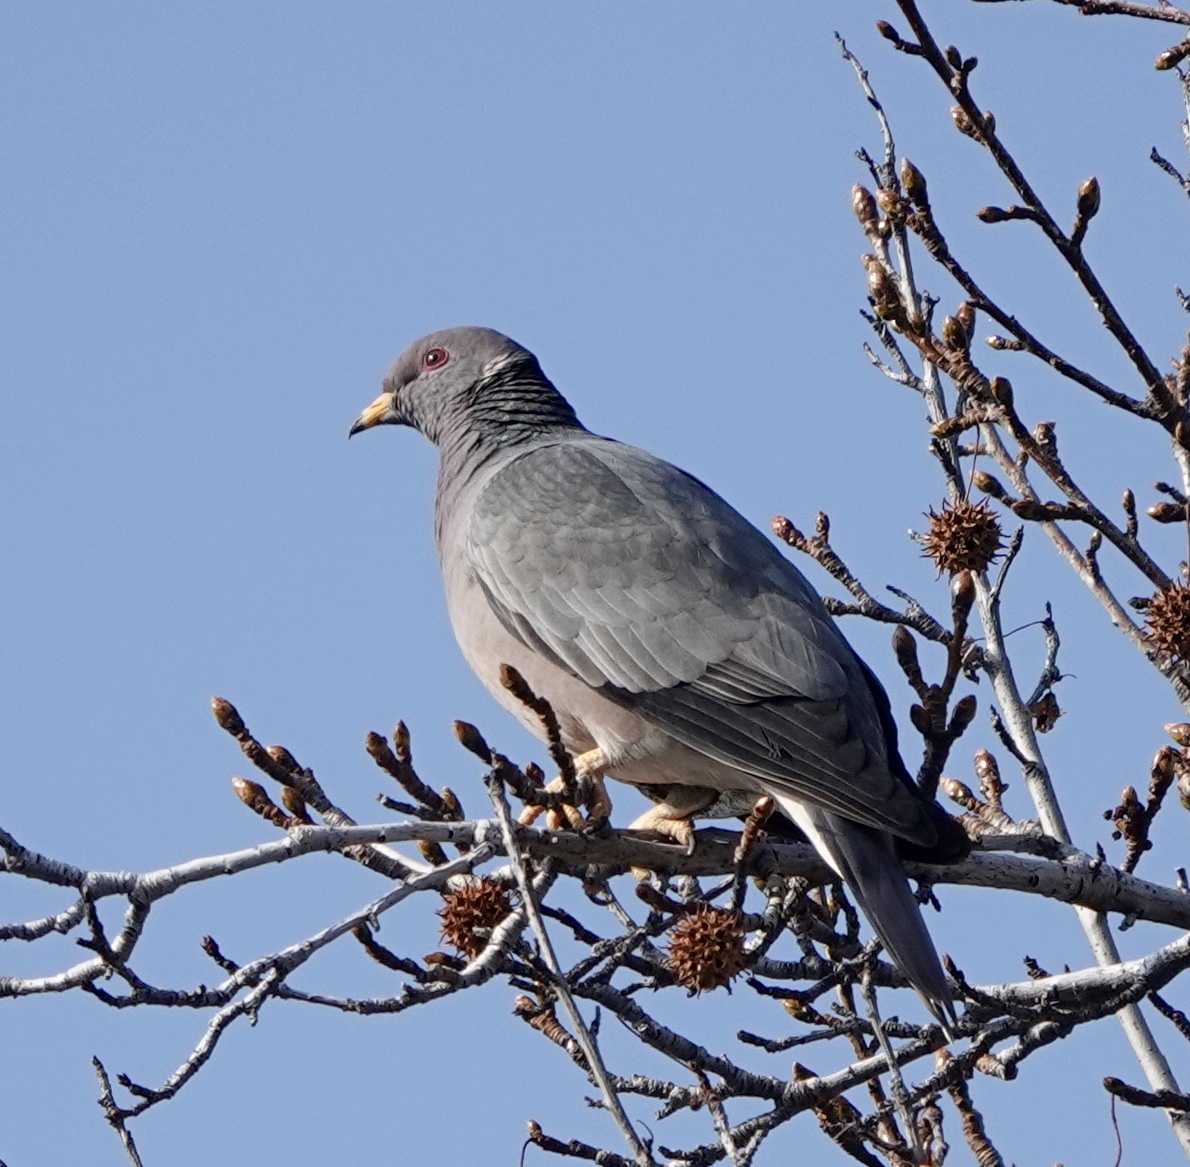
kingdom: Animalia
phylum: Chordata
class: Aves
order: Columbiformes
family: Columbidae
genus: Patagioenas
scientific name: Patagioenas fasciata
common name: Band-tailed pigeon
